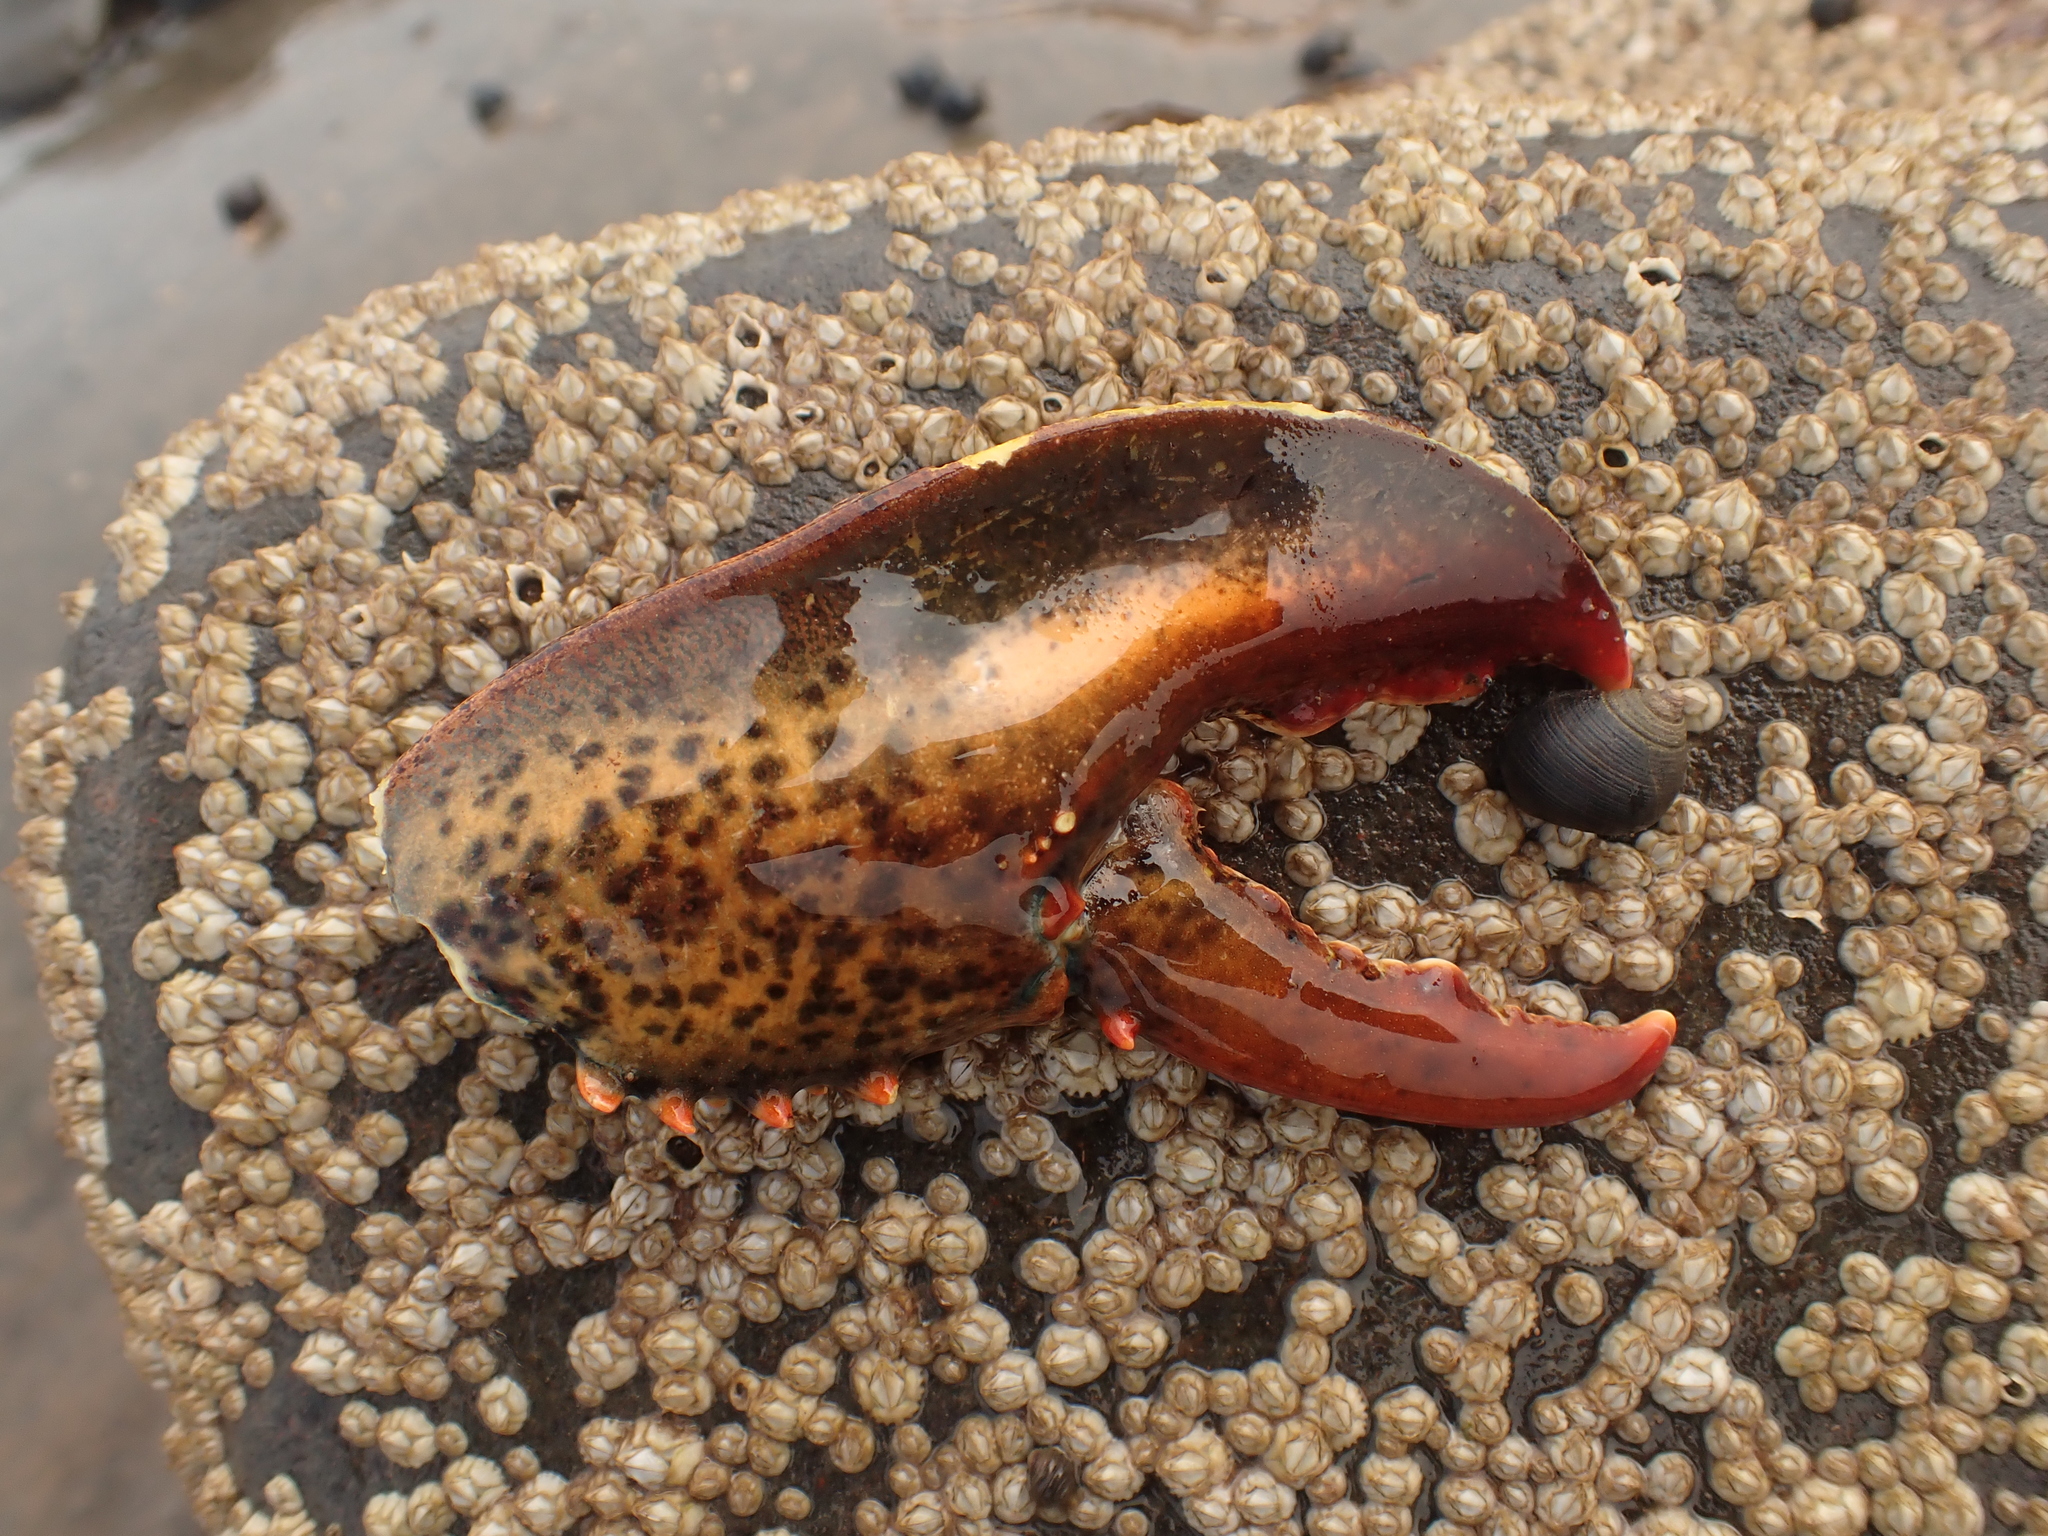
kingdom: Animalia
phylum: Arthropoda
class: Malacostraca
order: Decapoda
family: Nephropidae
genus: Homarus
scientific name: Homarus americanus
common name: American lobster
